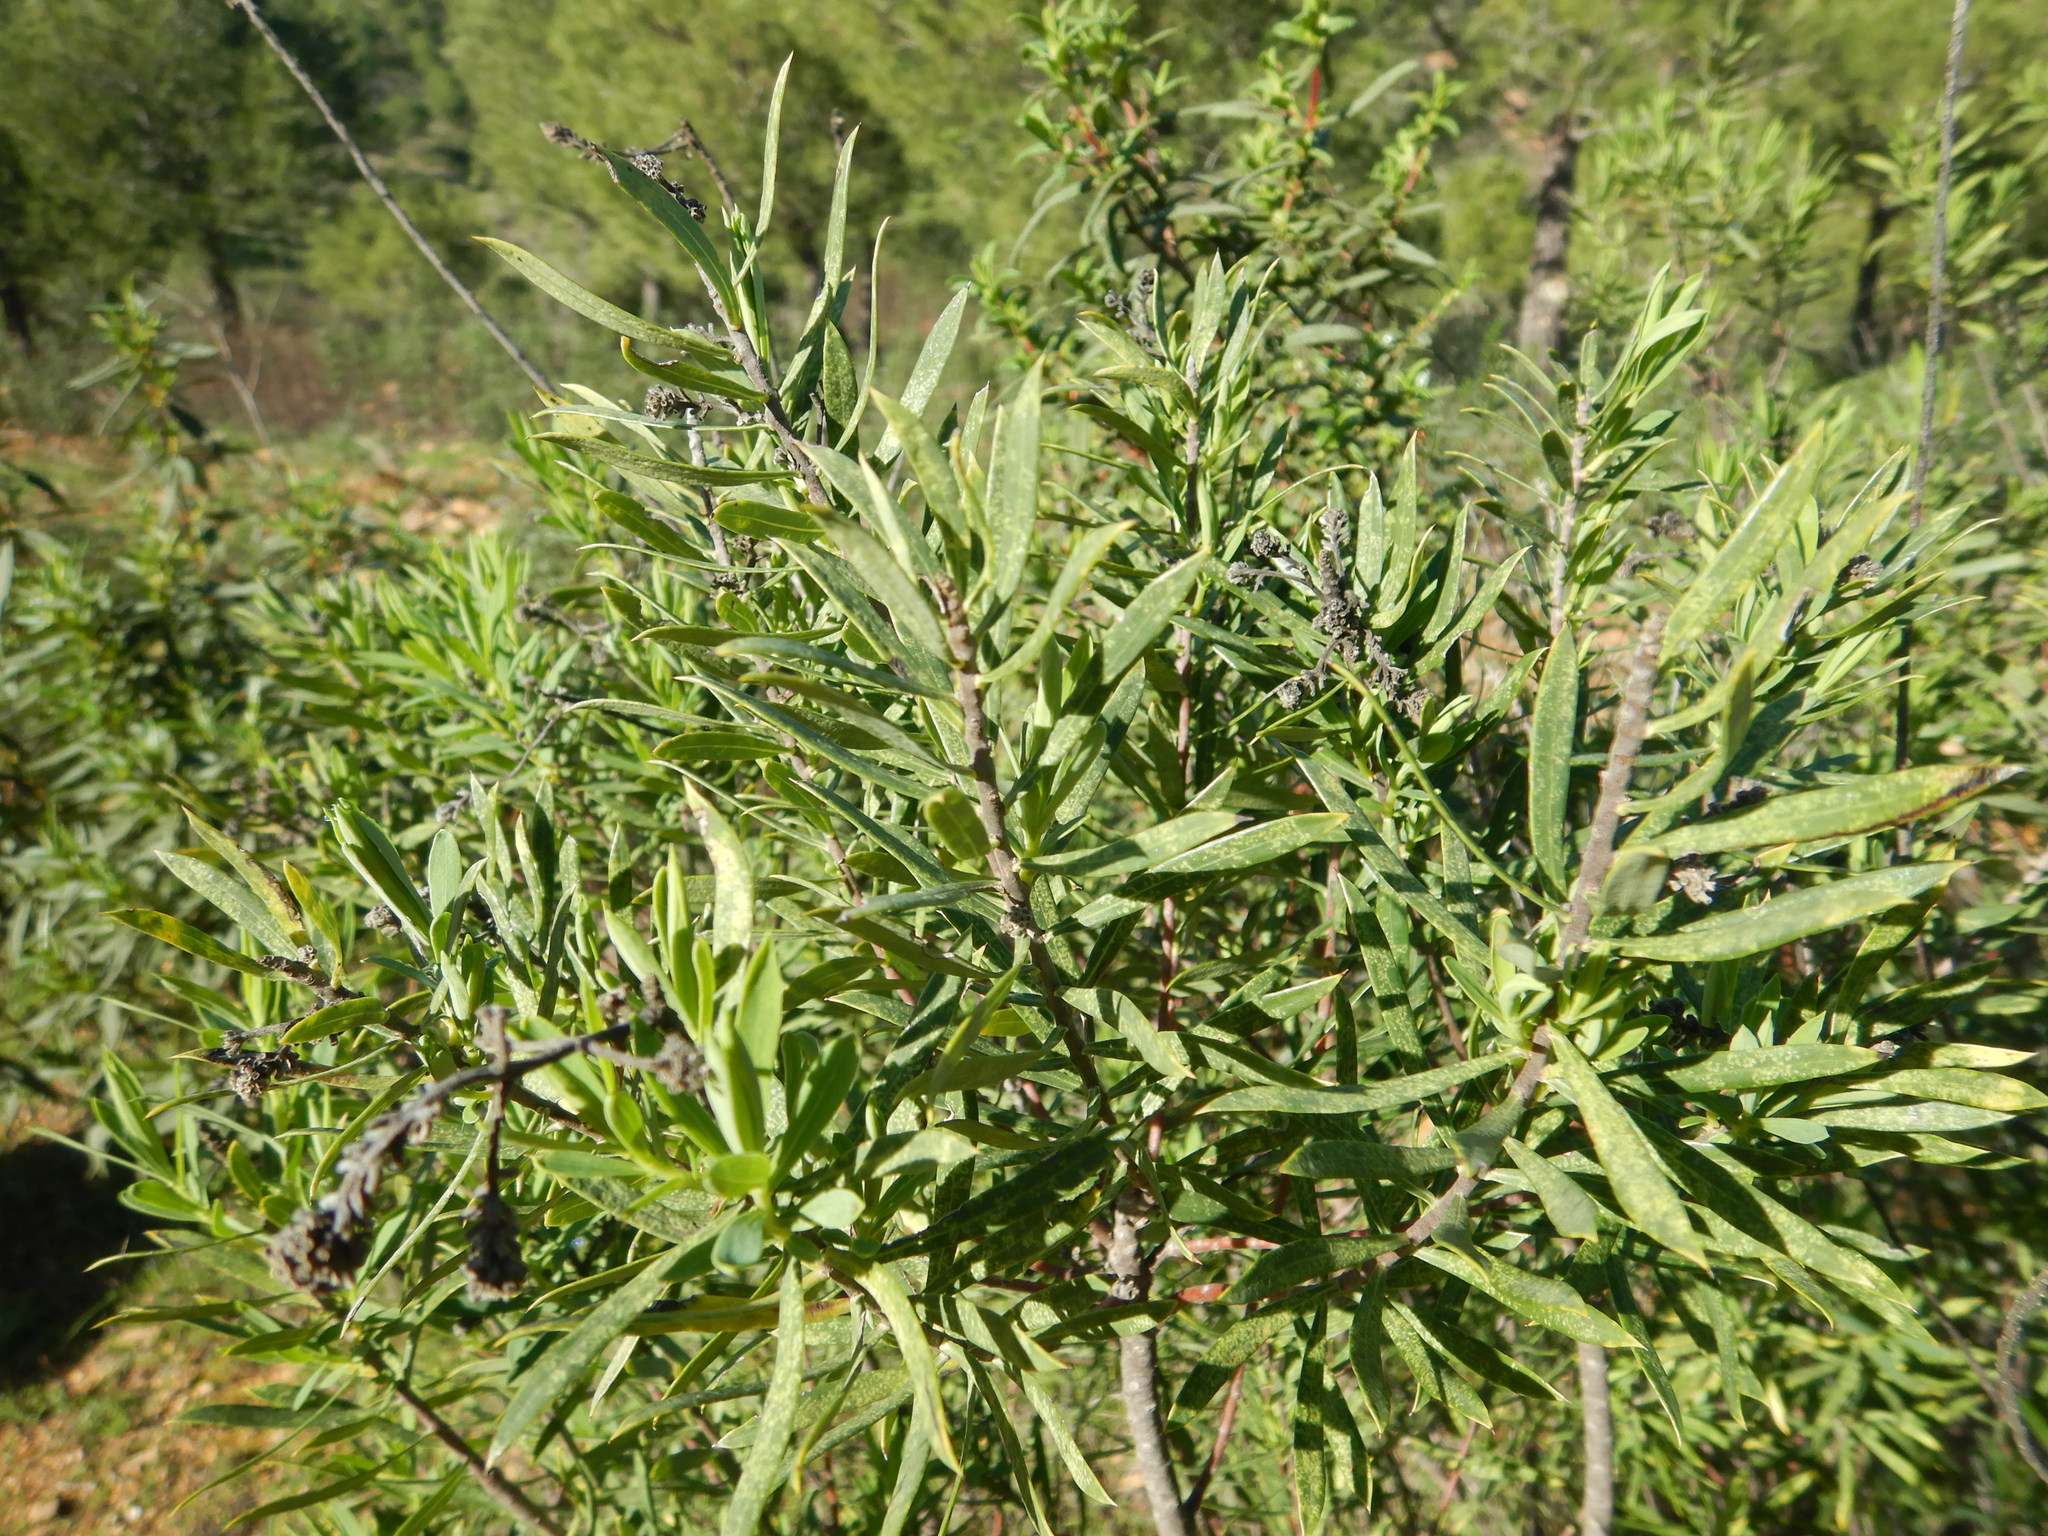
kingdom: Plantae
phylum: Tracheophyta
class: Magnoliopsida
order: Malvales
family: Thymelaeaceae
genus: Daphne
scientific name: Daphne gnidium
